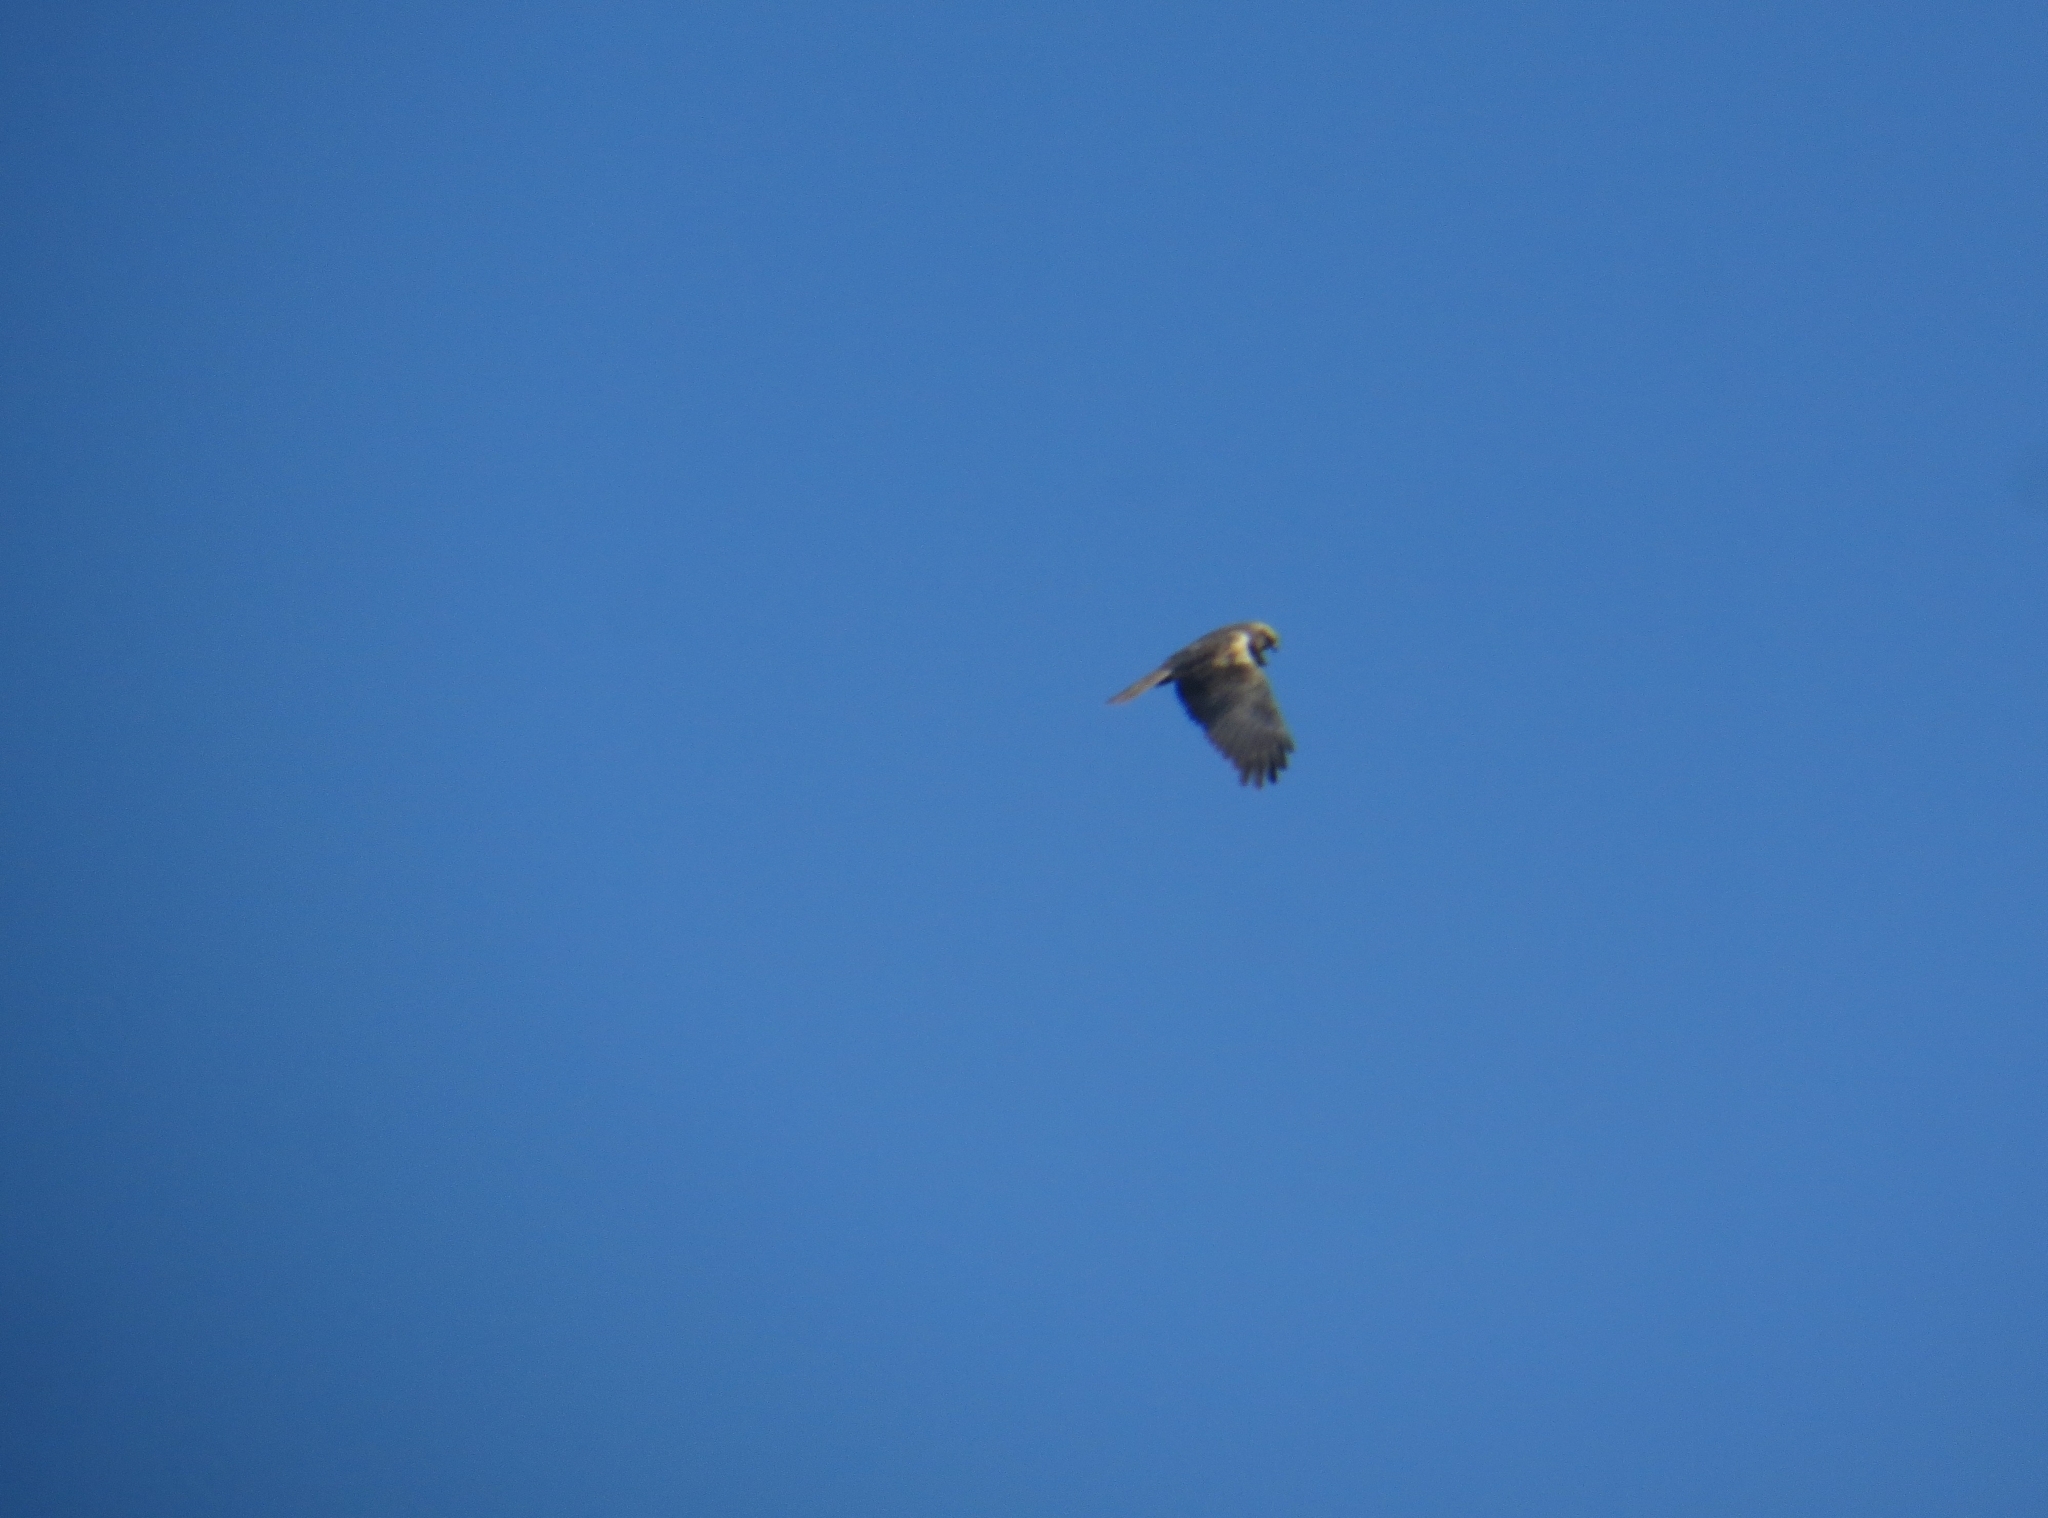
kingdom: Animalia
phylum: Chordata
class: Aves
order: Accipitriformes
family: Accipitridae
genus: Circus
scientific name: Circus aeruginosus
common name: Western marsh harrier
